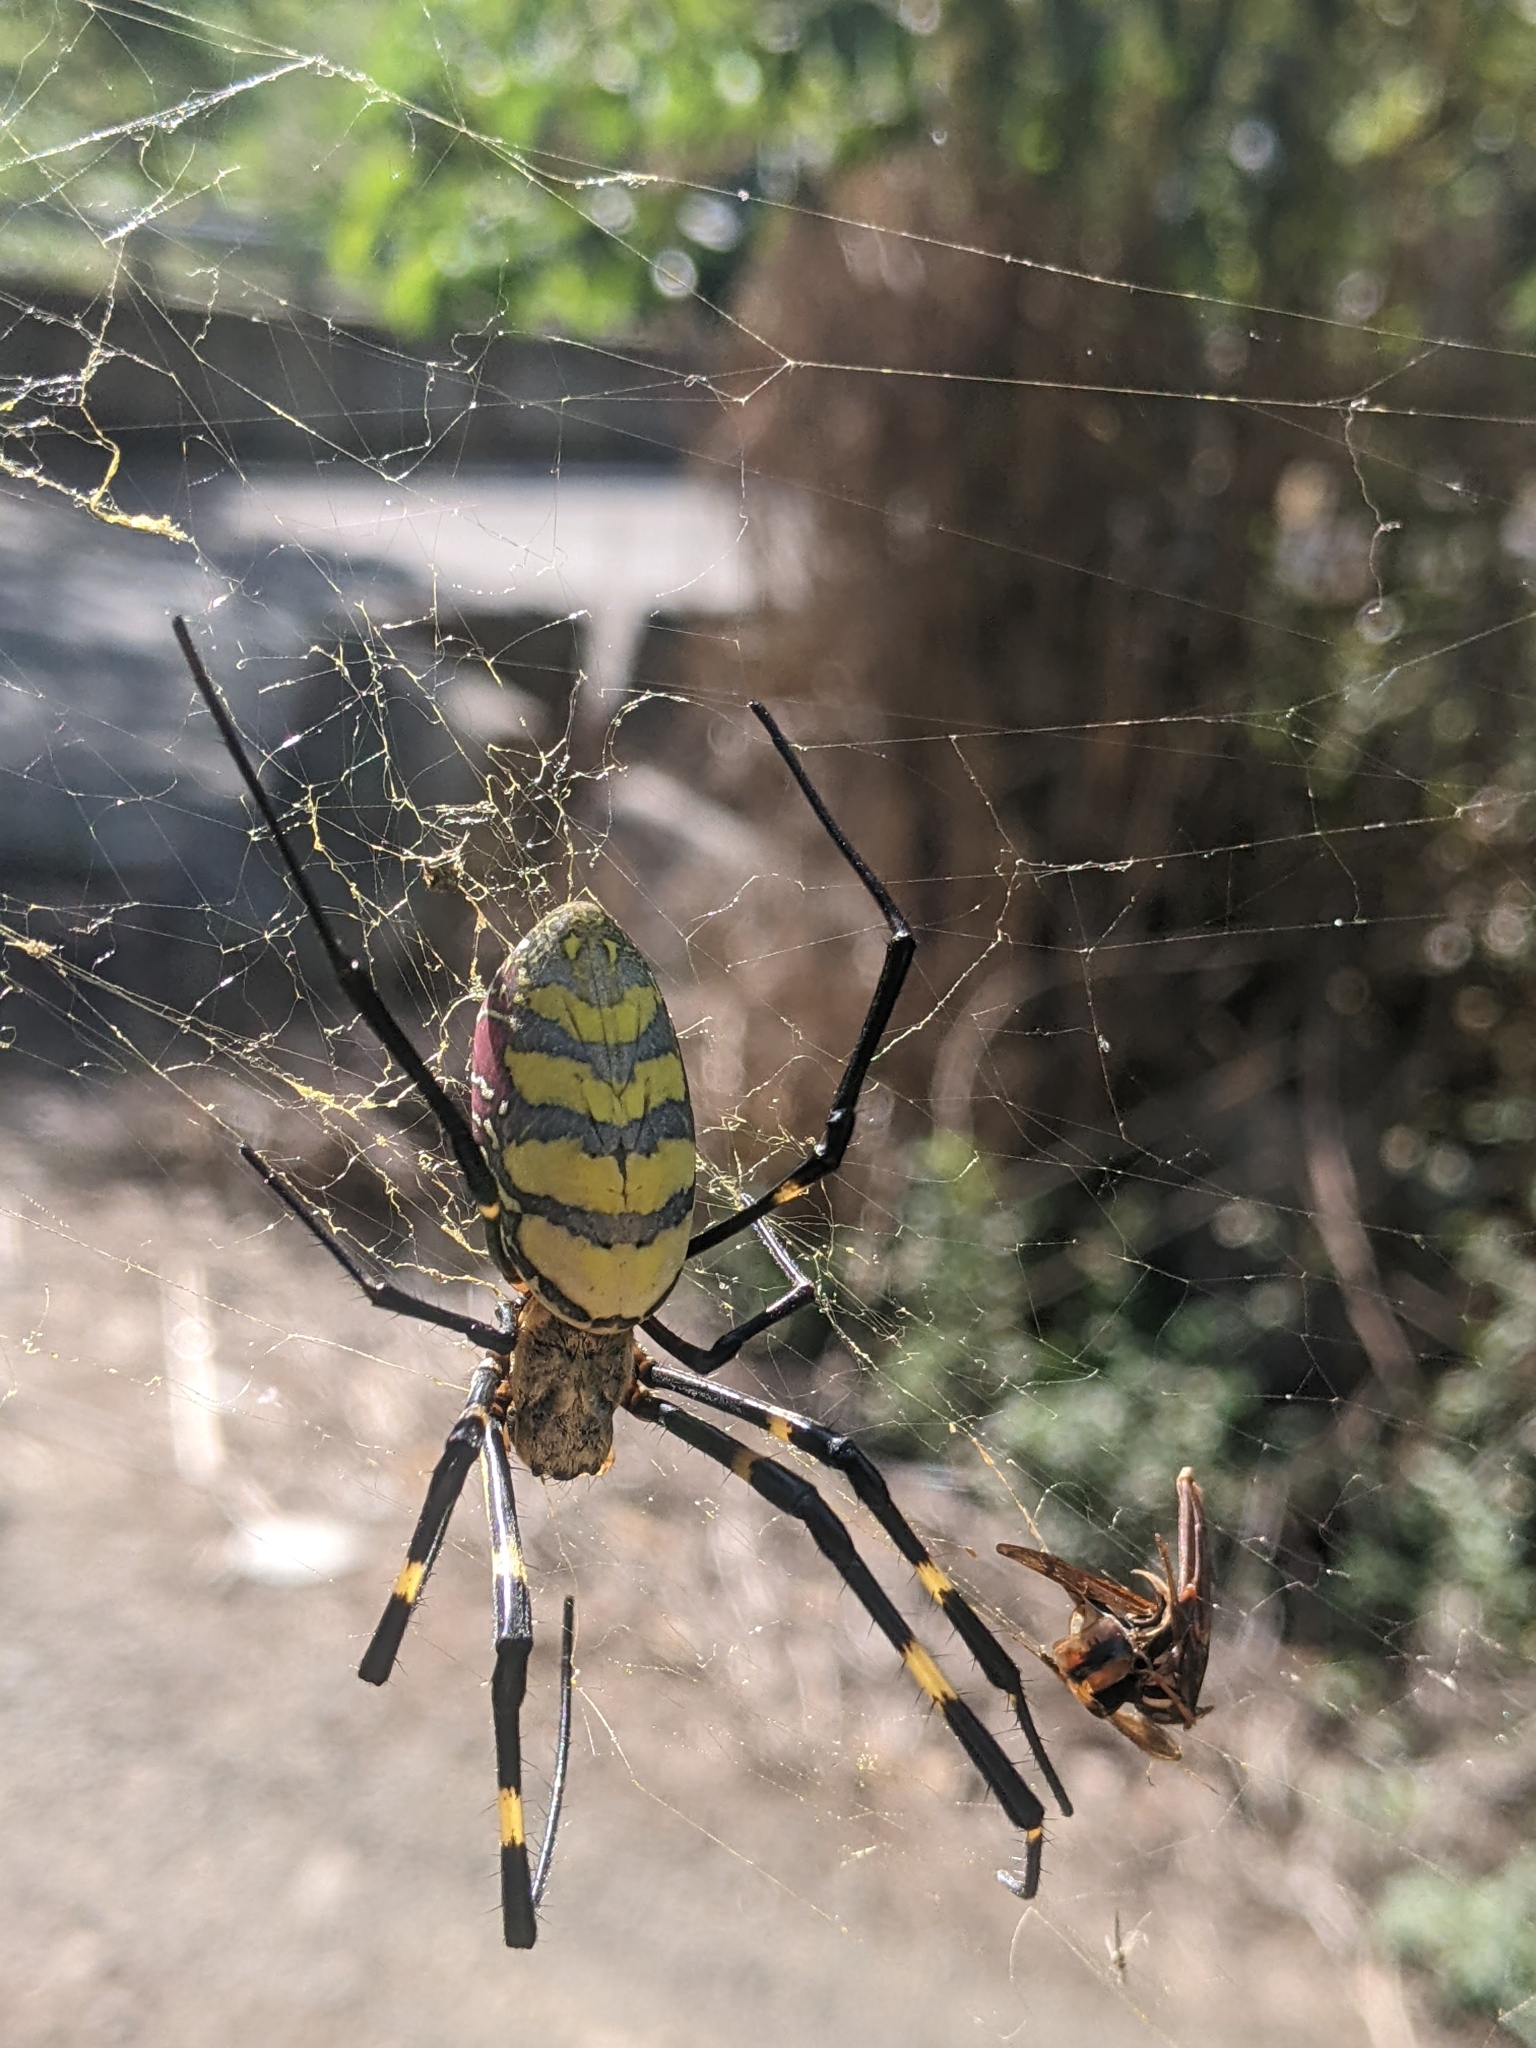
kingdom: Animalia
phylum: Arthropoda
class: Arachnida
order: Araneae
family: Araneidae
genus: Trichonephila
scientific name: Trichonephila clavata
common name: Jorō spider
